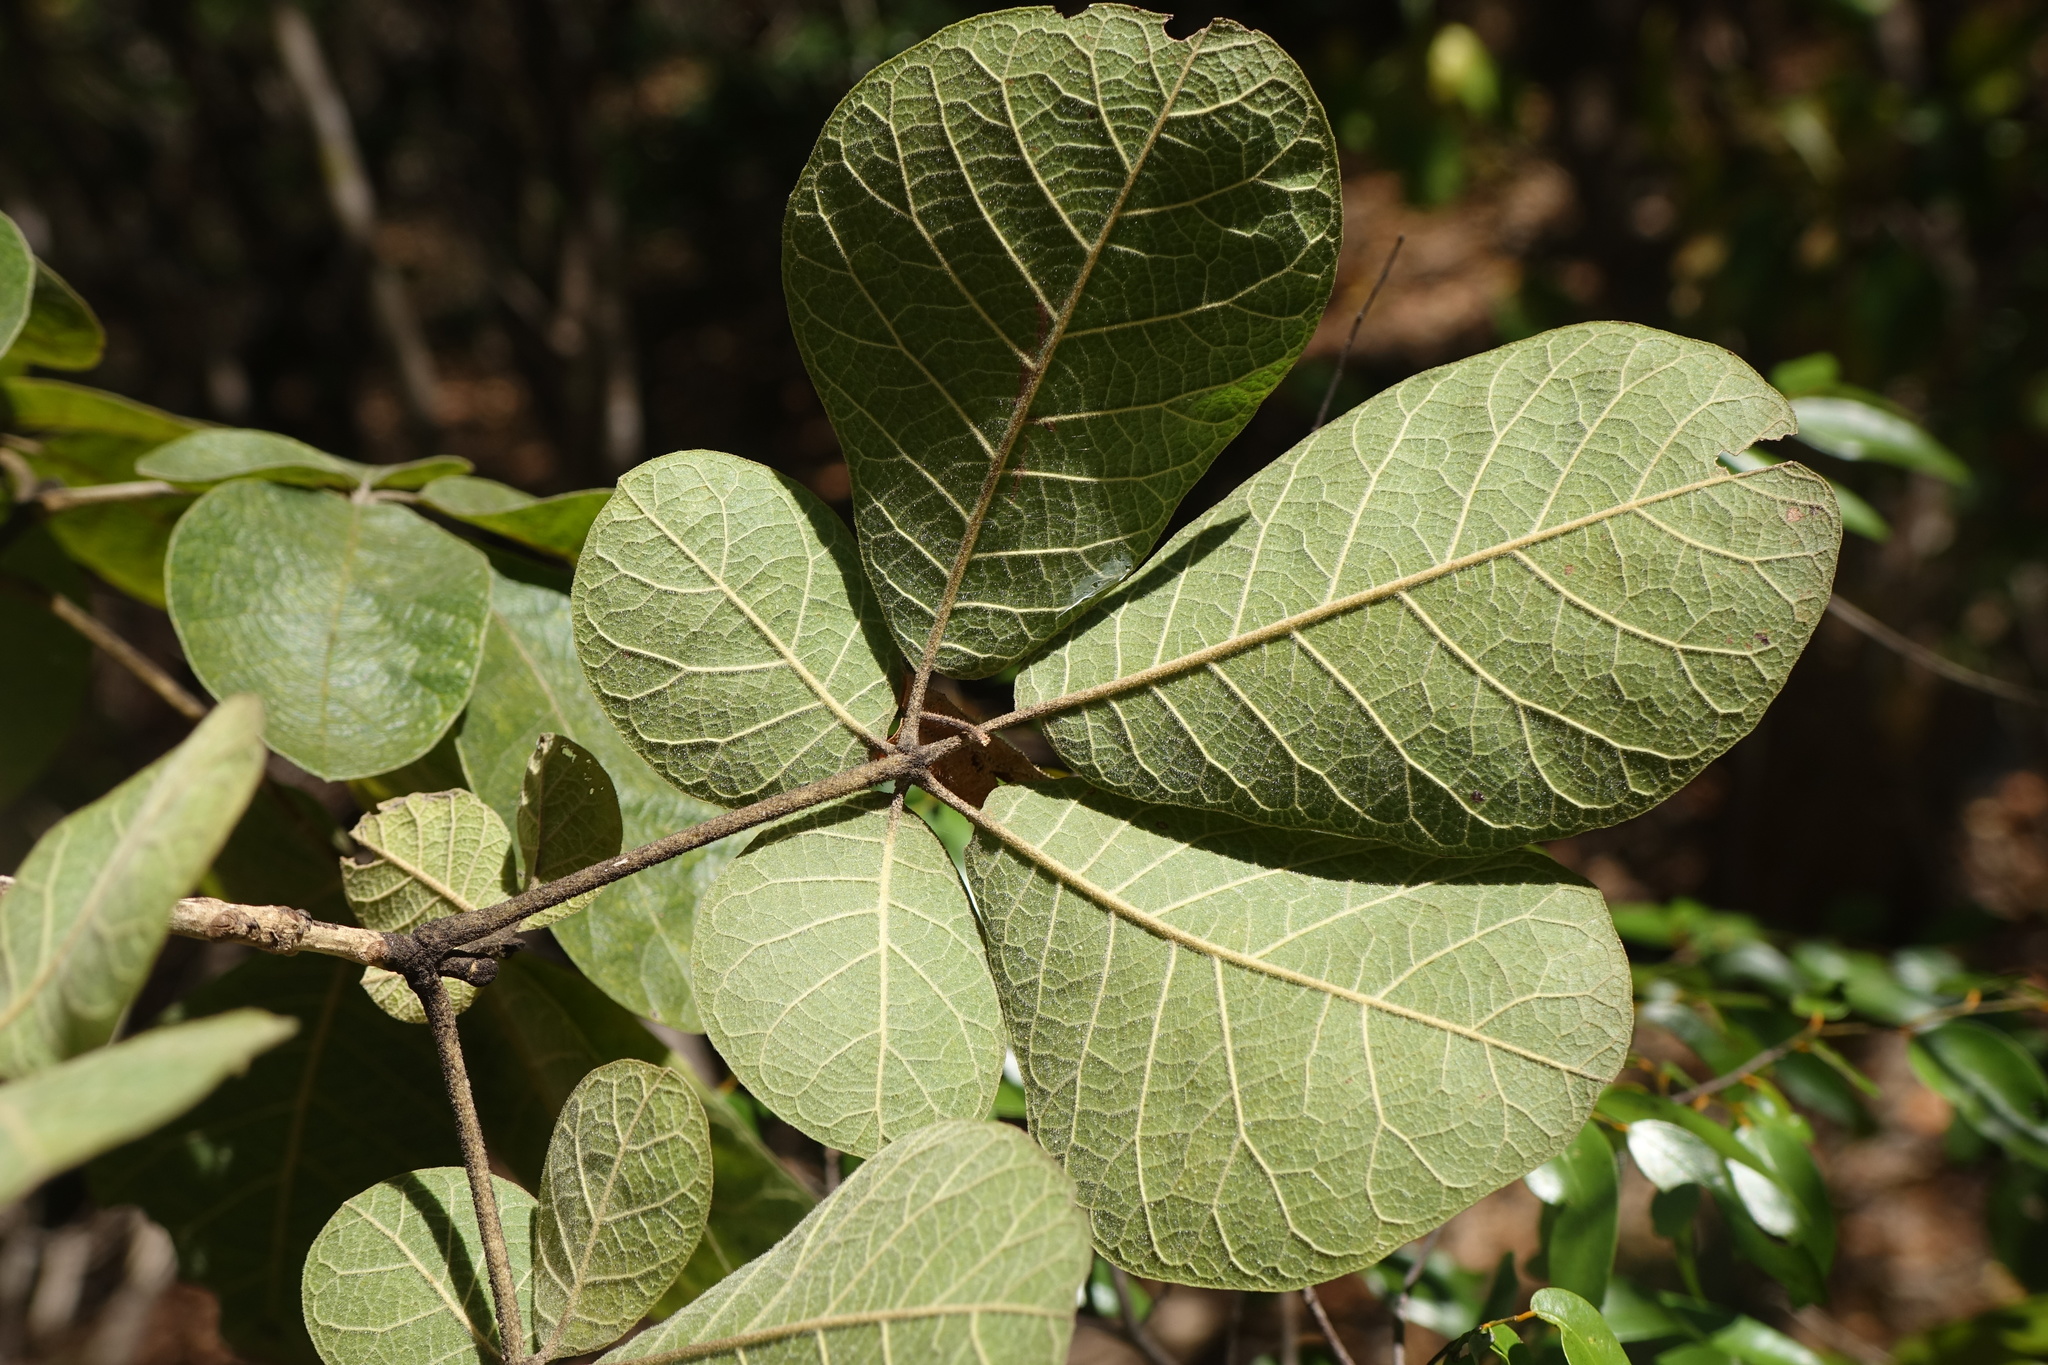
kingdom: Plantae
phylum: Tracheophyta
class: Magnoliopsida
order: Lamiales
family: Lamiaceae
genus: Vitex
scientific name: Vitex perrieri
